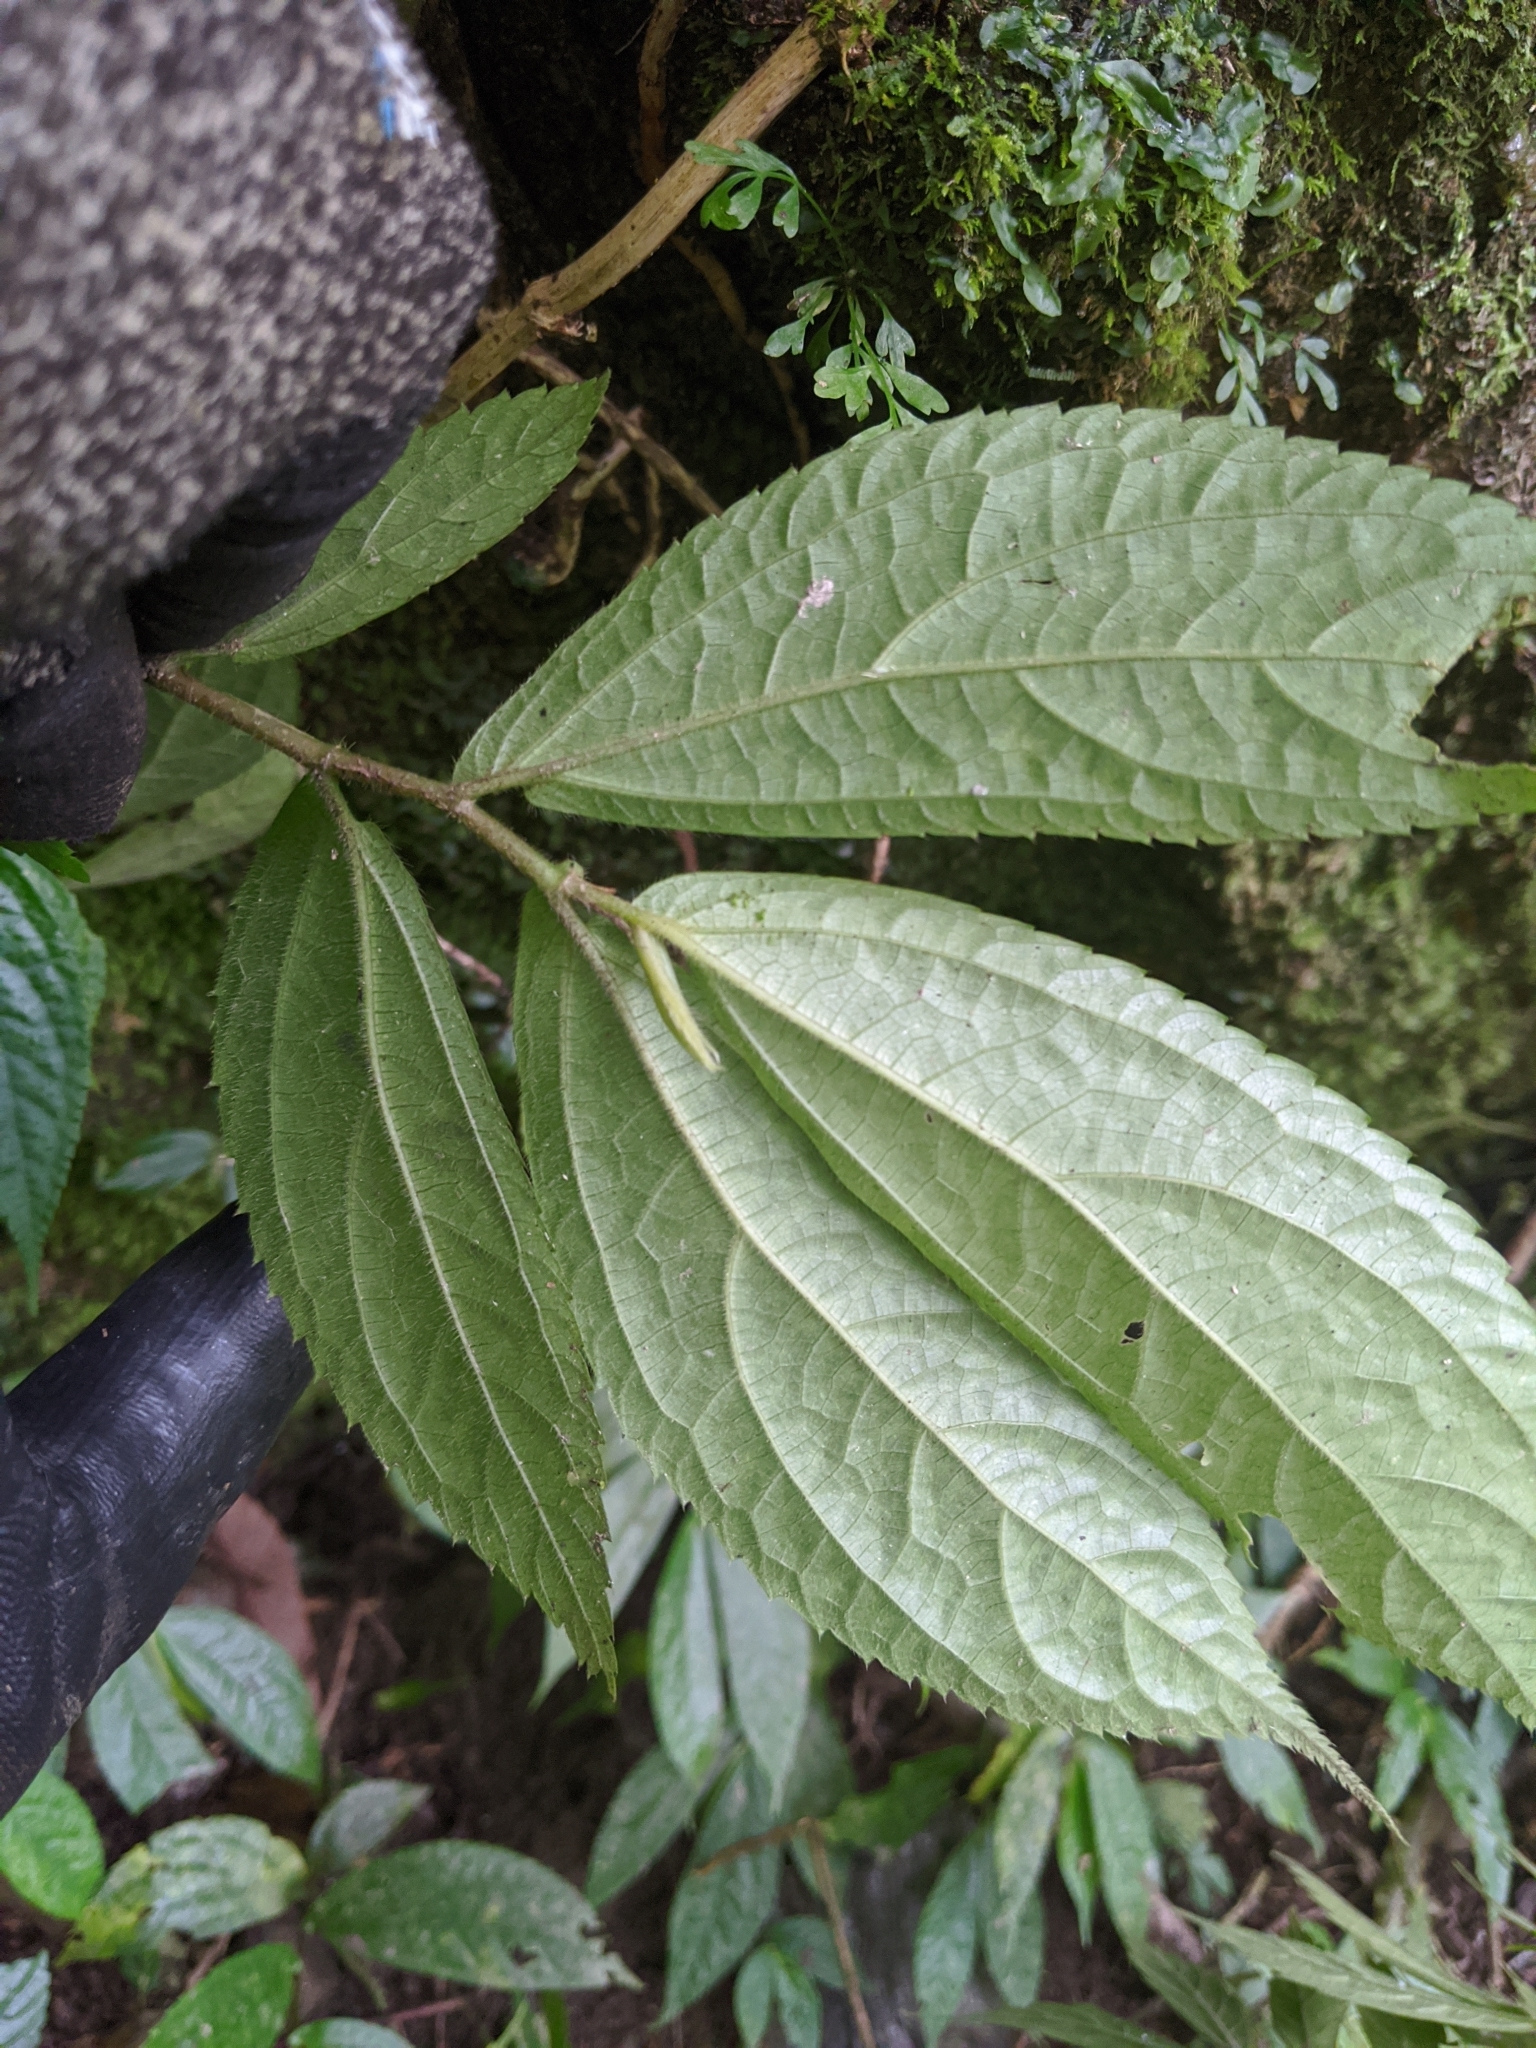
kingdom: Plantae
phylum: Tracheophyta
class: Magnoliopsida
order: Rosales
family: Urticaceae
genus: Elatostema
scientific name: Elatostema platyphyllum
